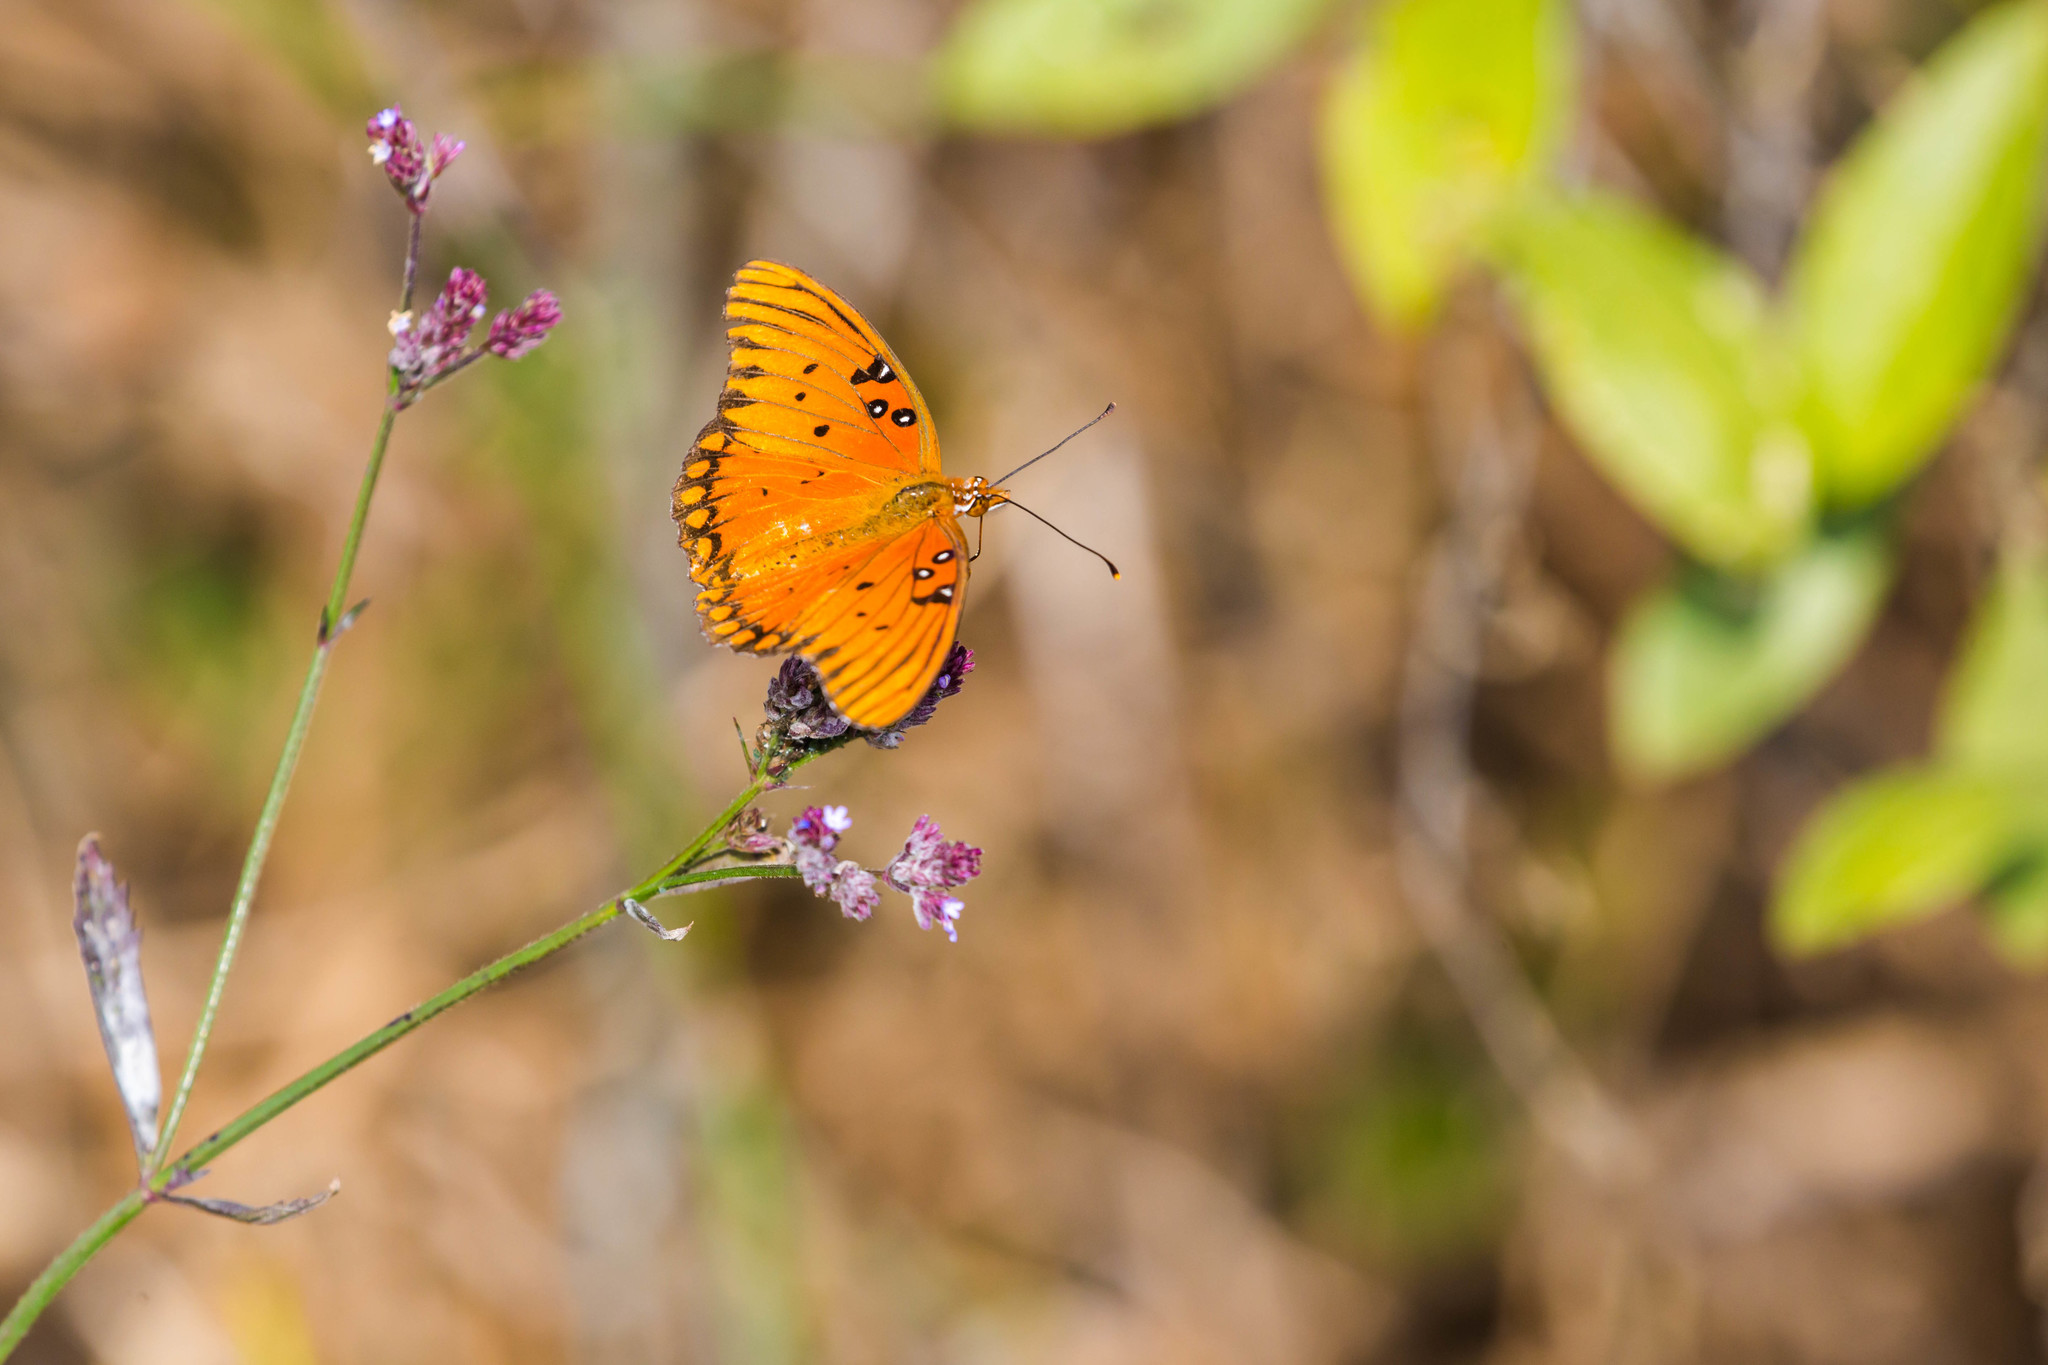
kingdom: Animalia
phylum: Arthropoda
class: Insecta
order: Lepidoptera
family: Nymphalidae
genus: Dione
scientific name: Dione vanillae
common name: Gulf fritillary
